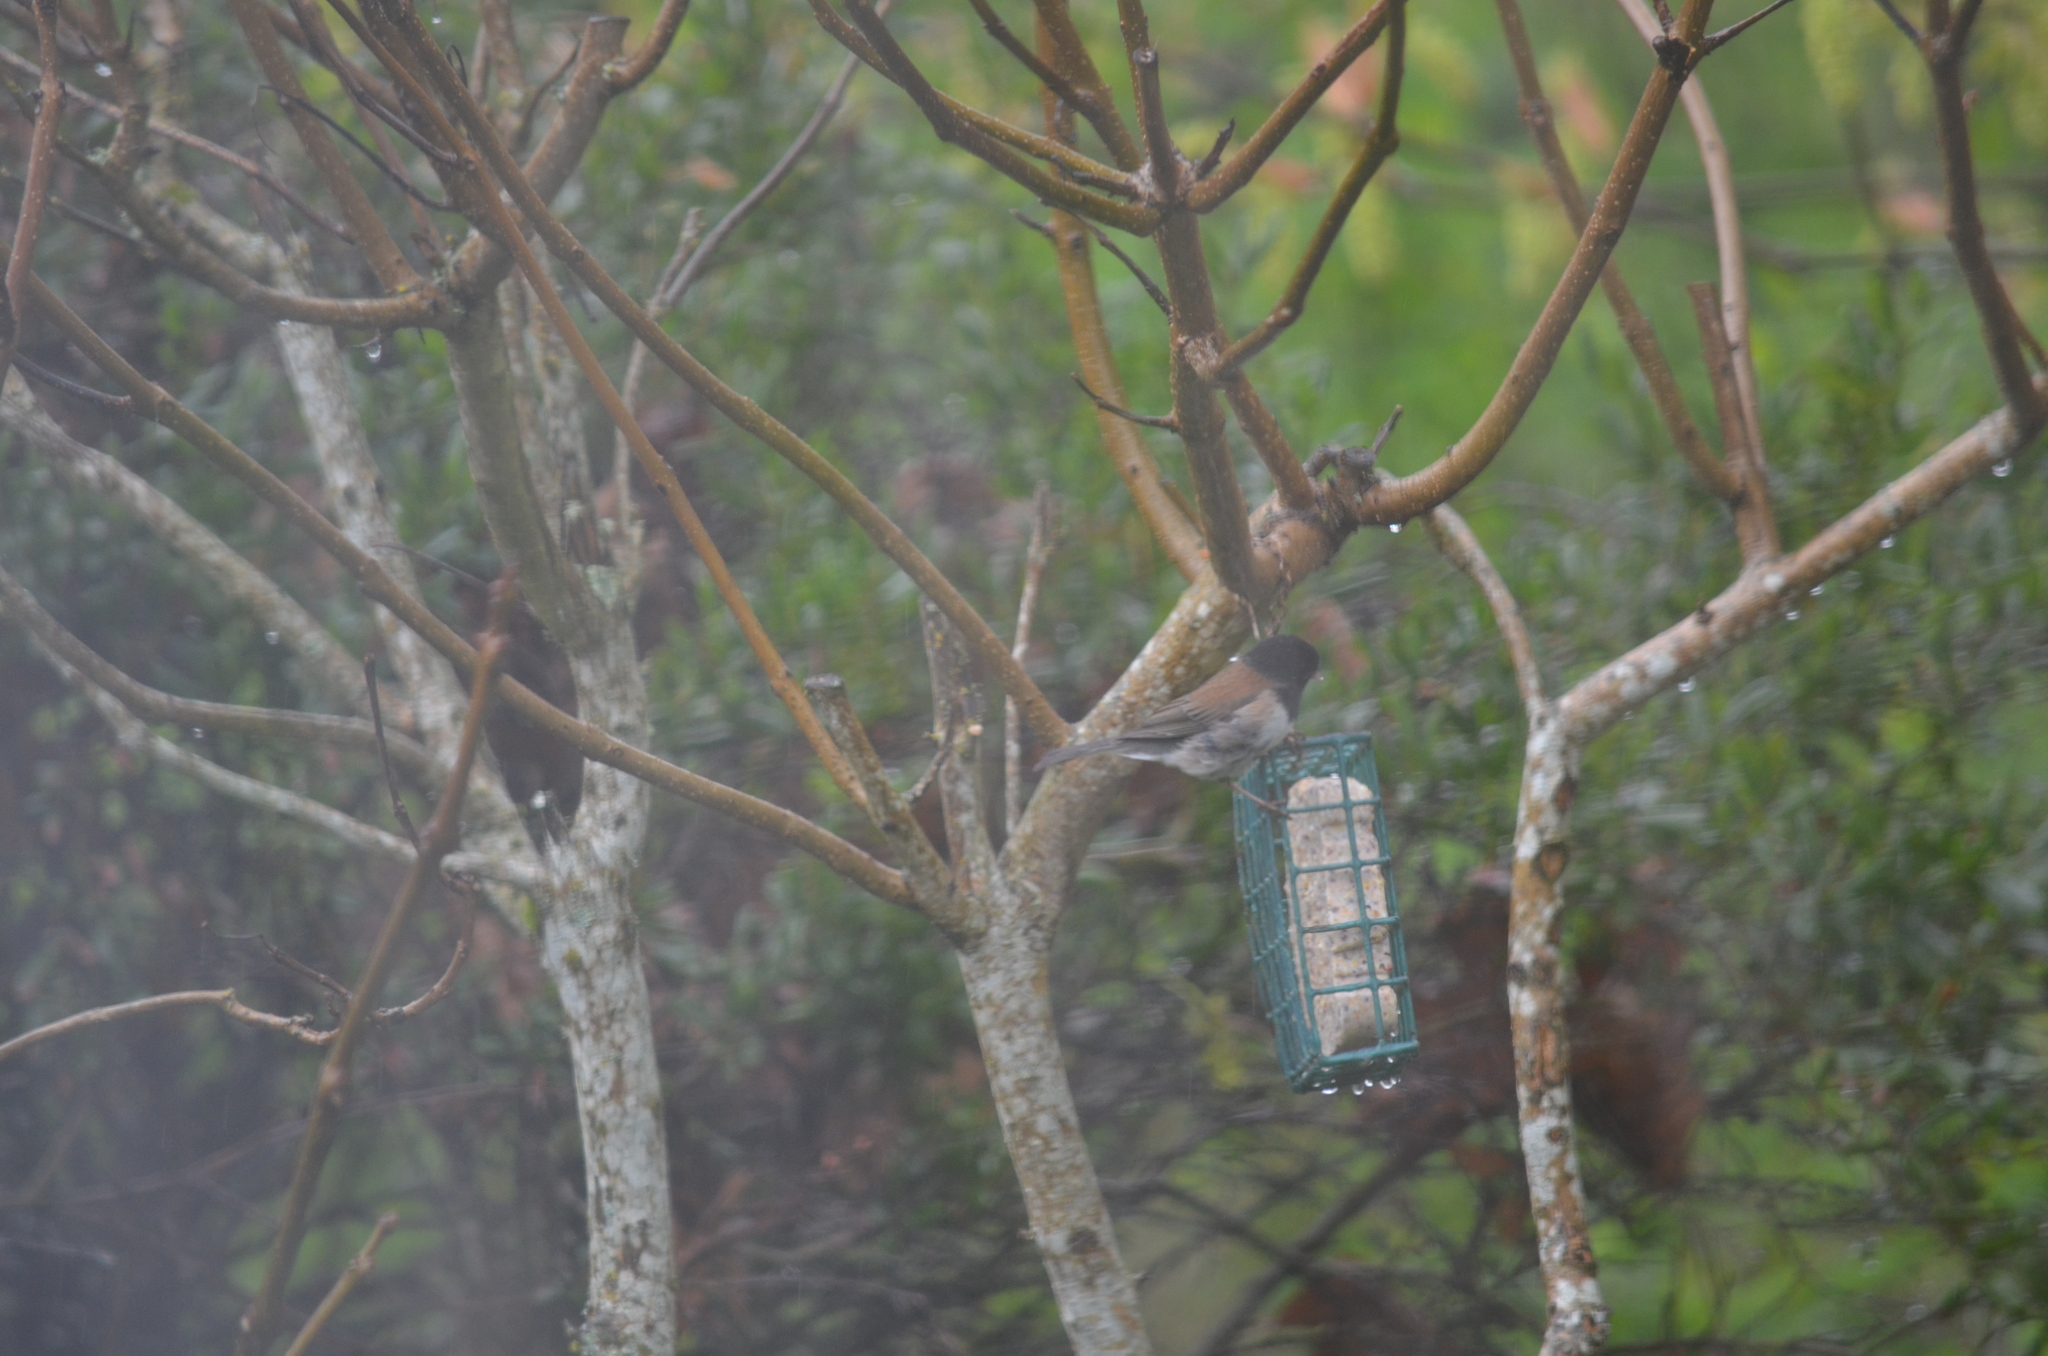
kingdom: Animalia
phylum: Chordata
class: Aves
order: Passeriformes
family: Passerellidae
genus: Junco
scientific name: Junco hyemalis
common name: Dark-eyed junco
